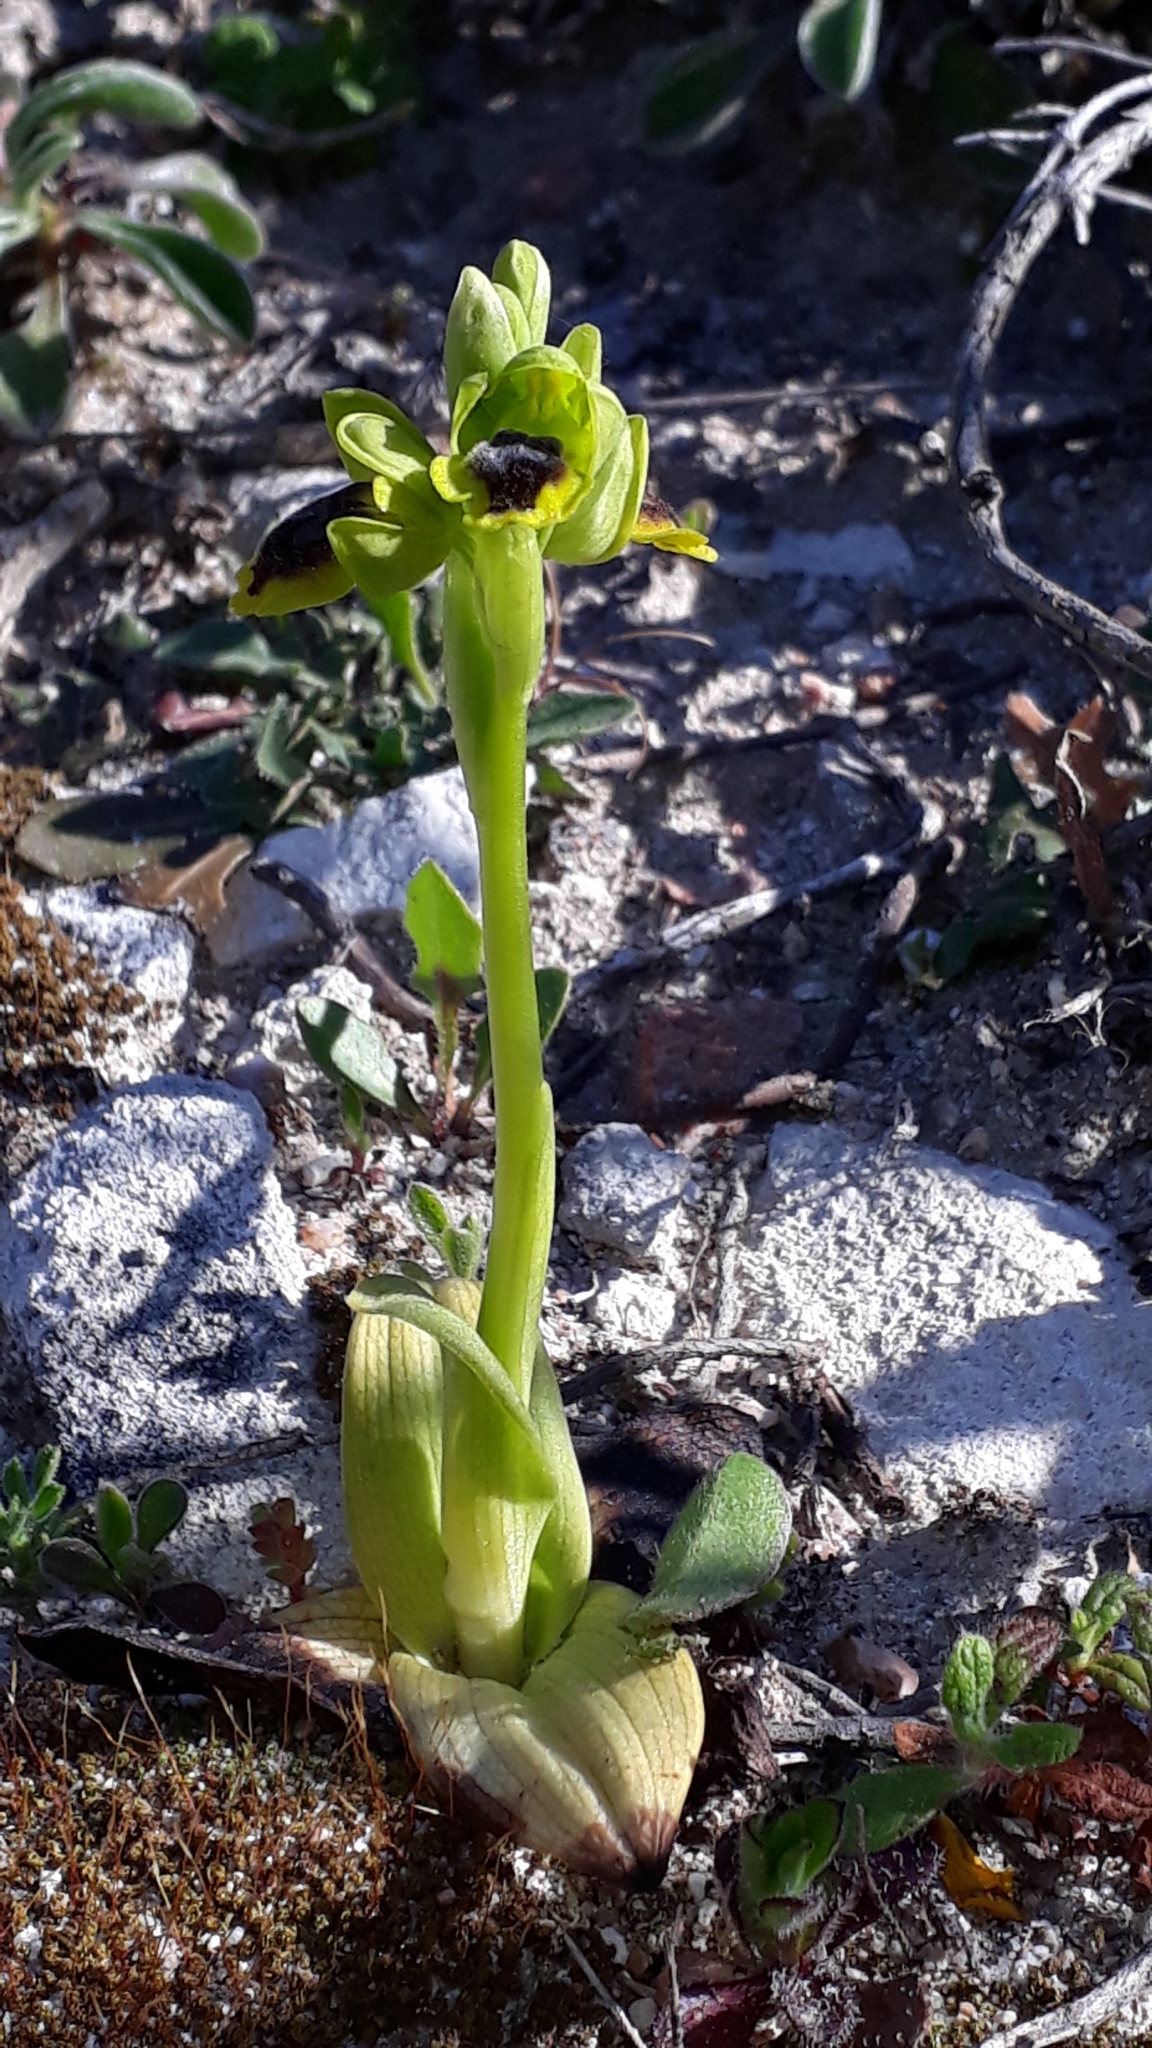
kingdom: Plantae
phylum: Tracheophyta
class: Liliopsida
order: Asparagales
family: Orchidaceae
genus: Ophrys
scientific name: Ophrys lutea
